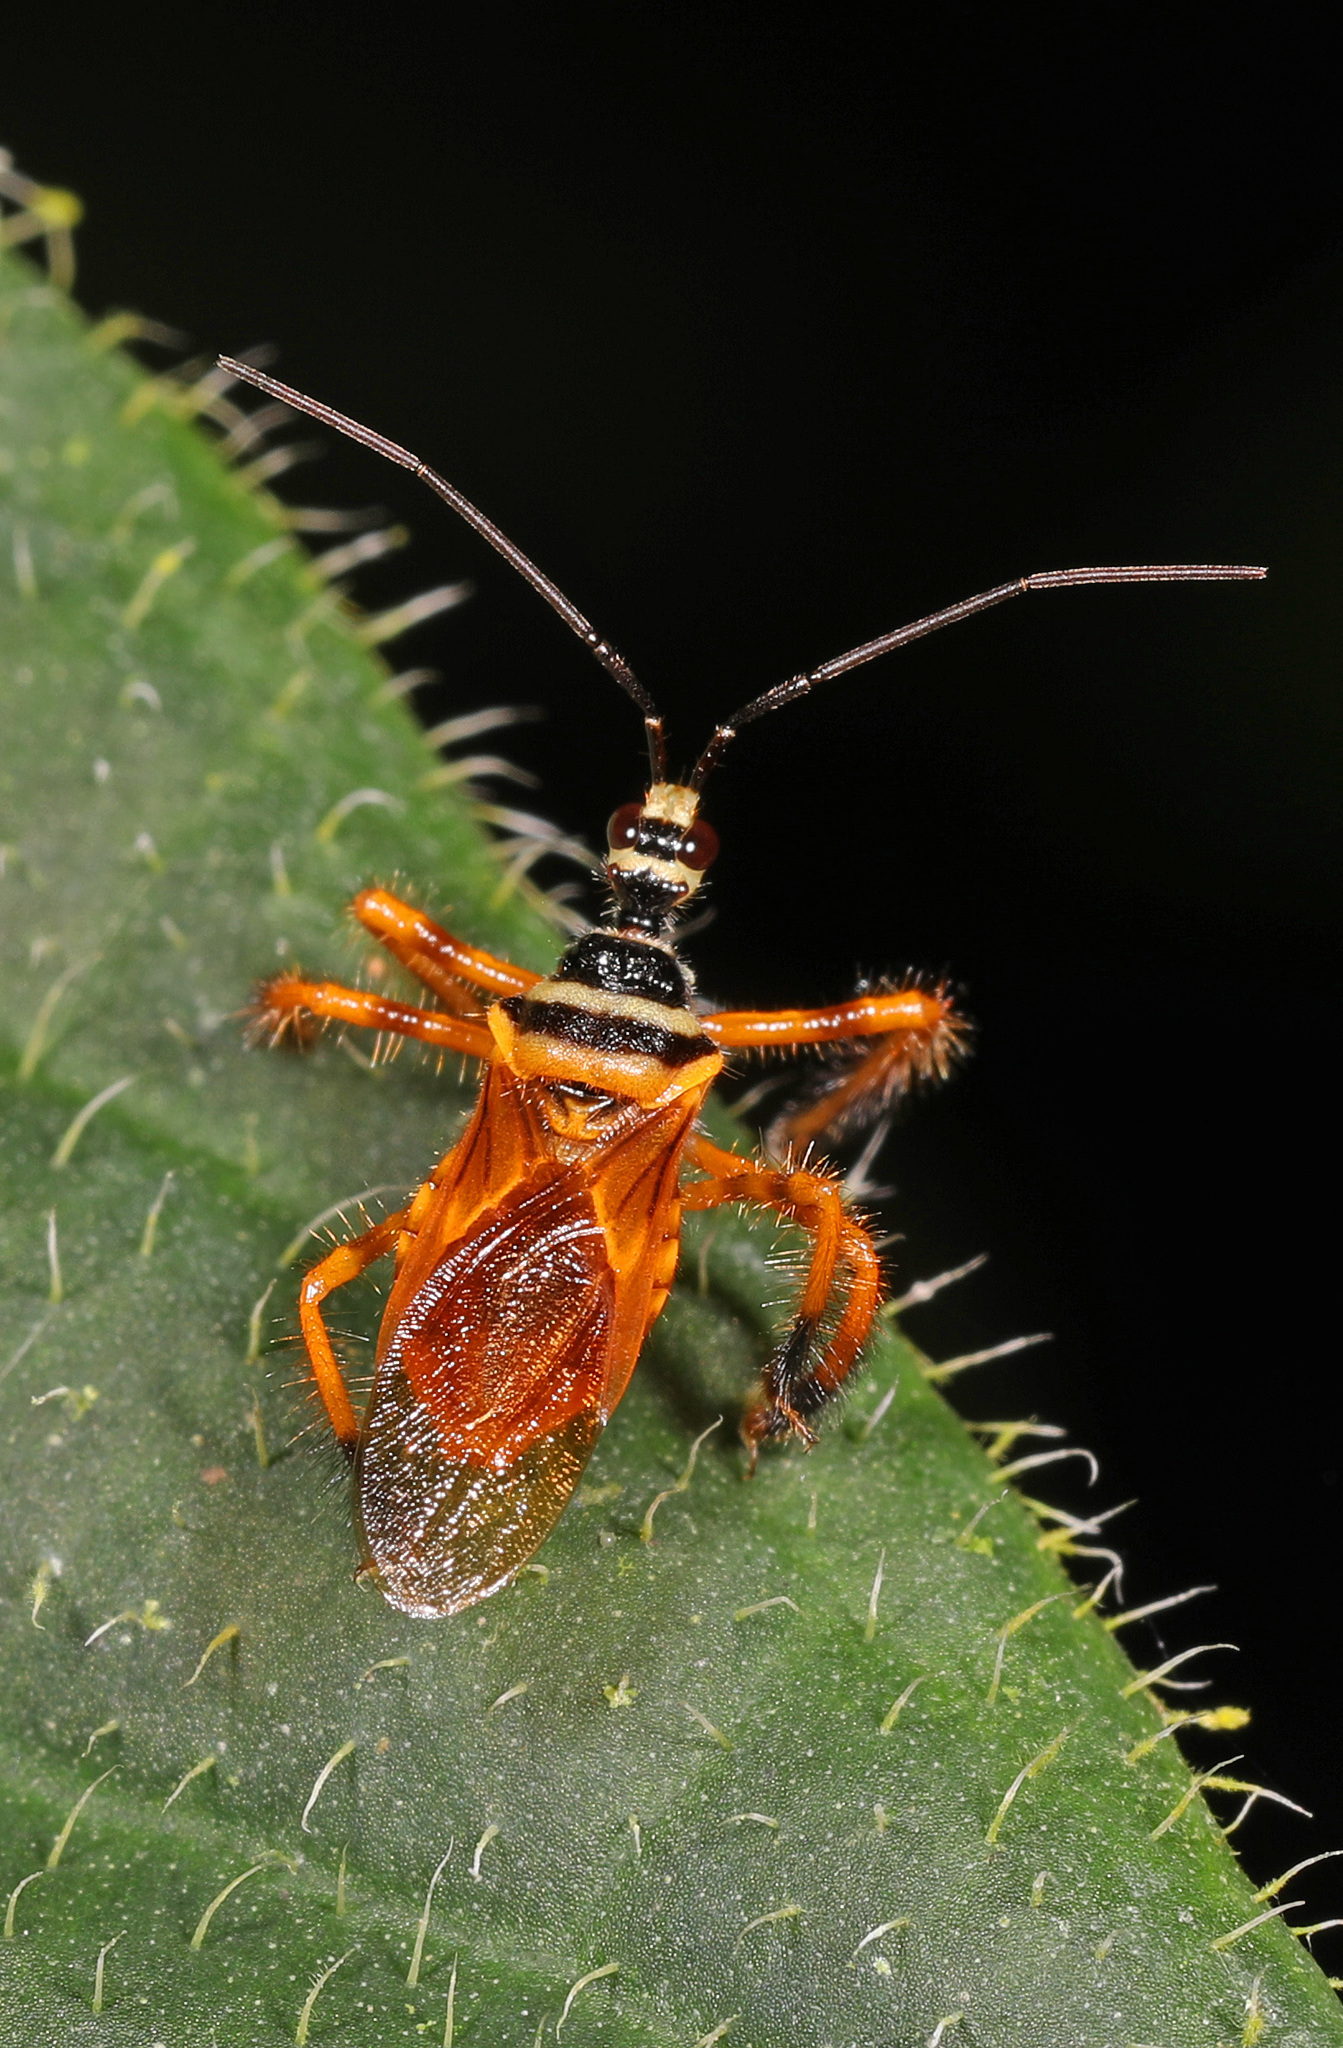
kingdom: Animalia
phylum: Arthropoda
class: Insecta
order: Hemiptera
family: Reduviidae
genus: Agriocoris
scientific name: Agriocoris flavipes
